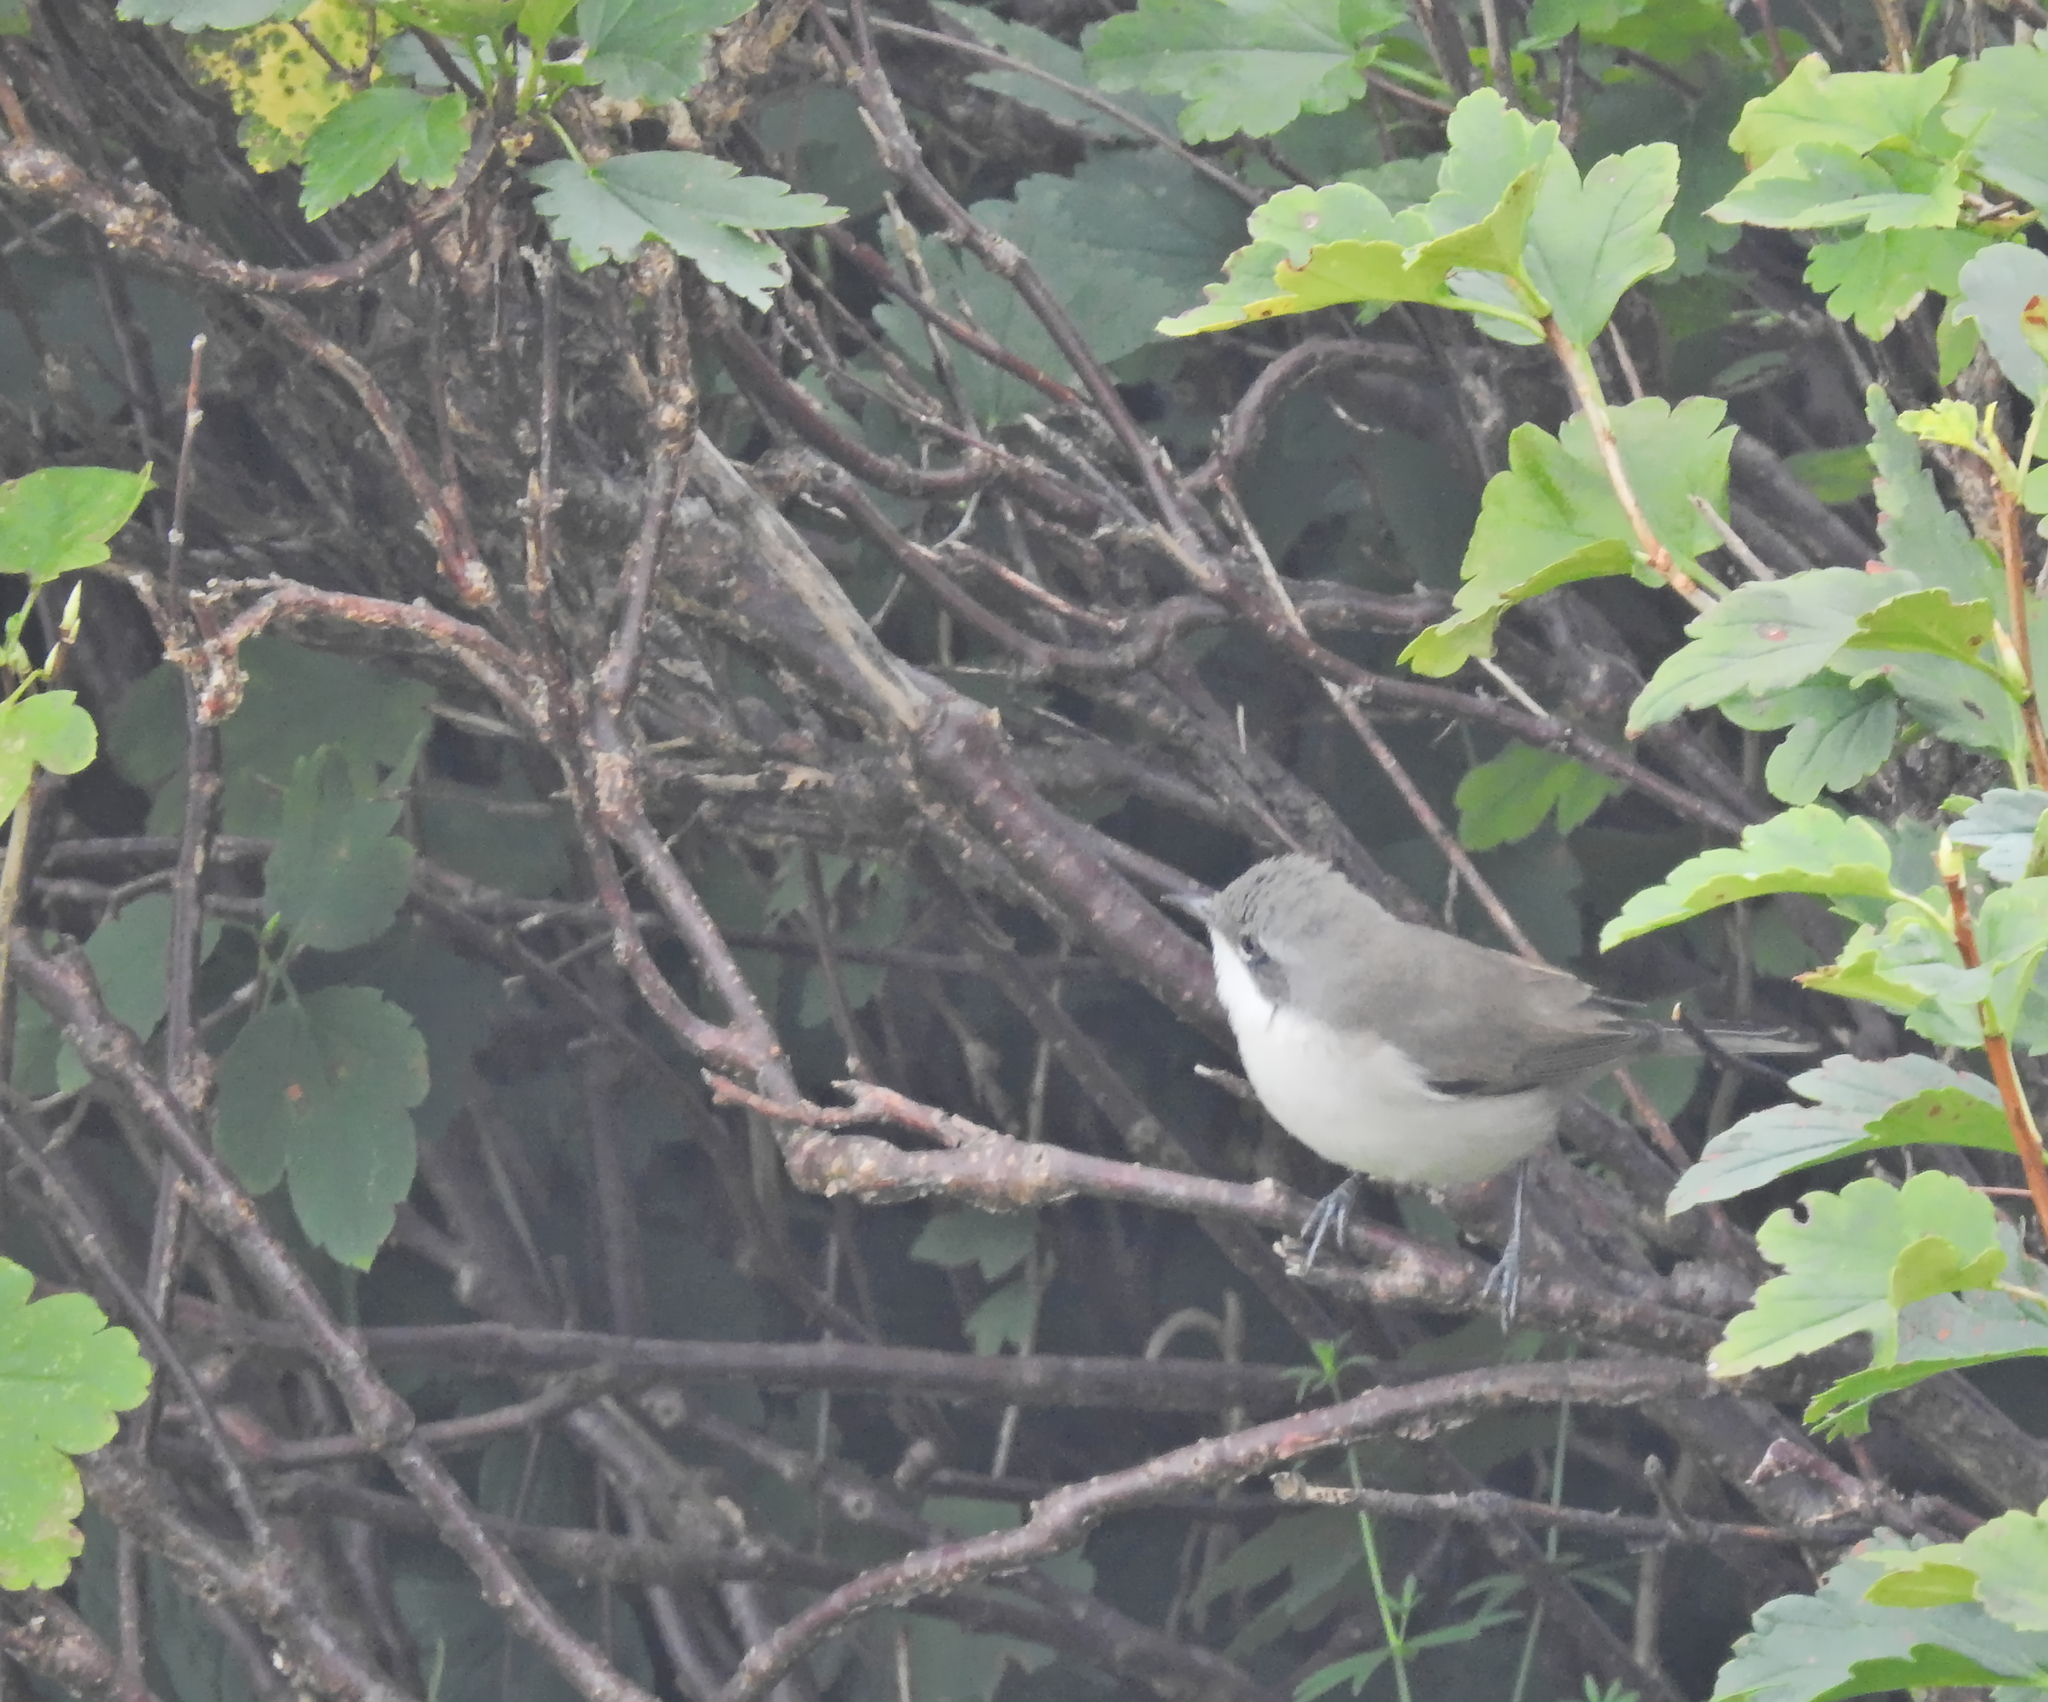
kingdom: Animalia
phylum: Chordata
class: Aves
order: Passeriformes
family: Sylviidae
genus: Sylvia
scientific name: Sylvia curruca
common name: Lesser whitethroat
